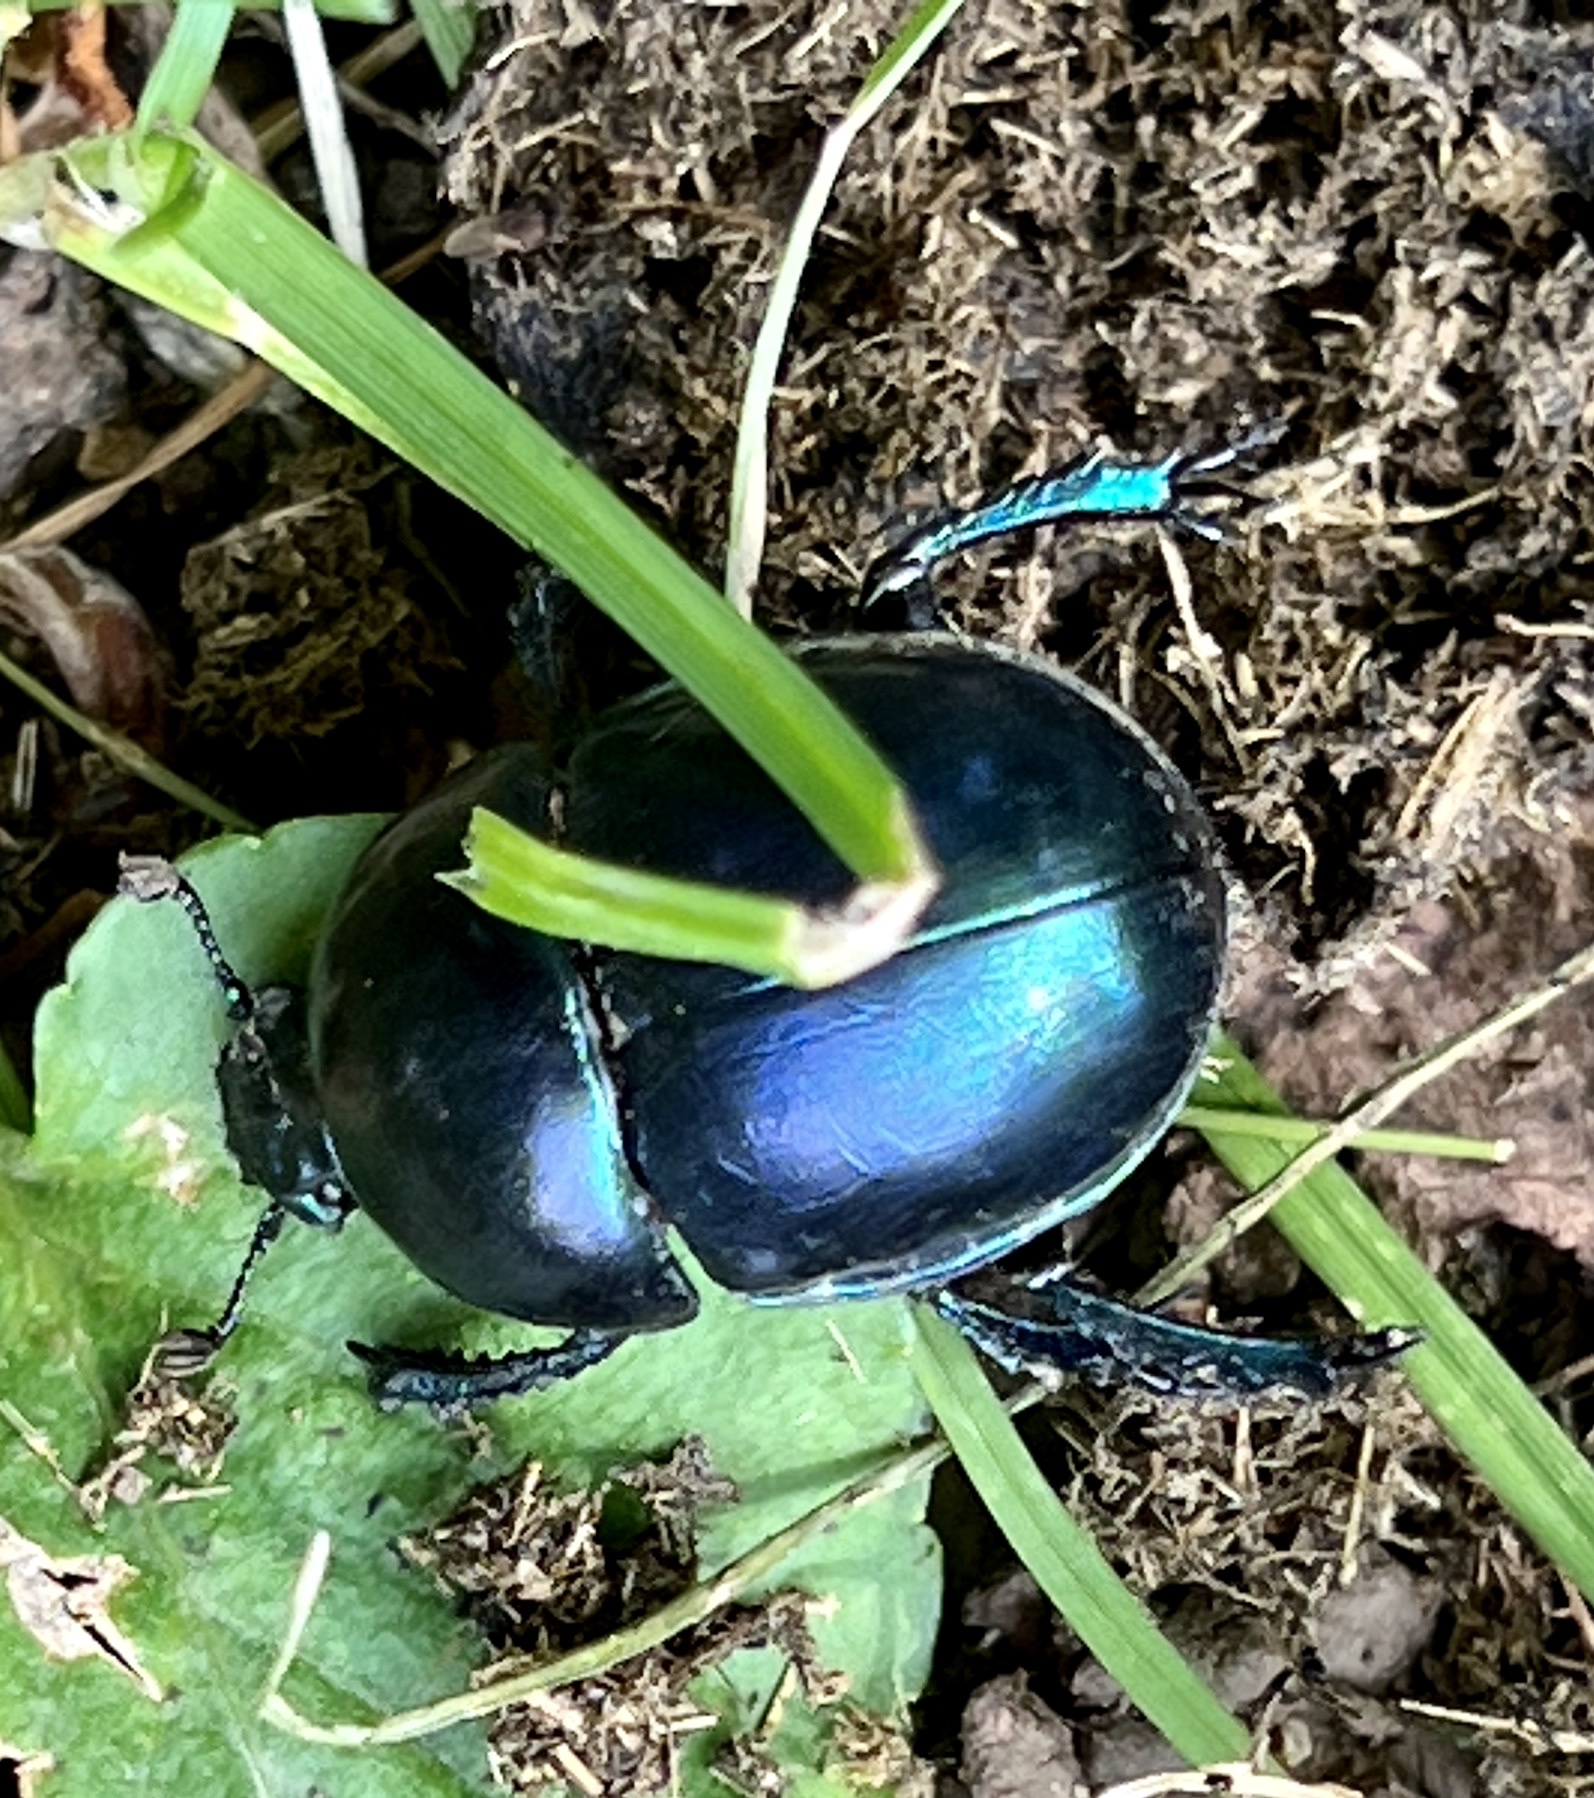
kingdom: Animalia
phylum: Arthropoda
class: Insecta
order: Coleoptera
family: Geotrupidae
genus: Trypocopris
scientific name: Trypocopris vernalis
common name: Spring dumbledor
